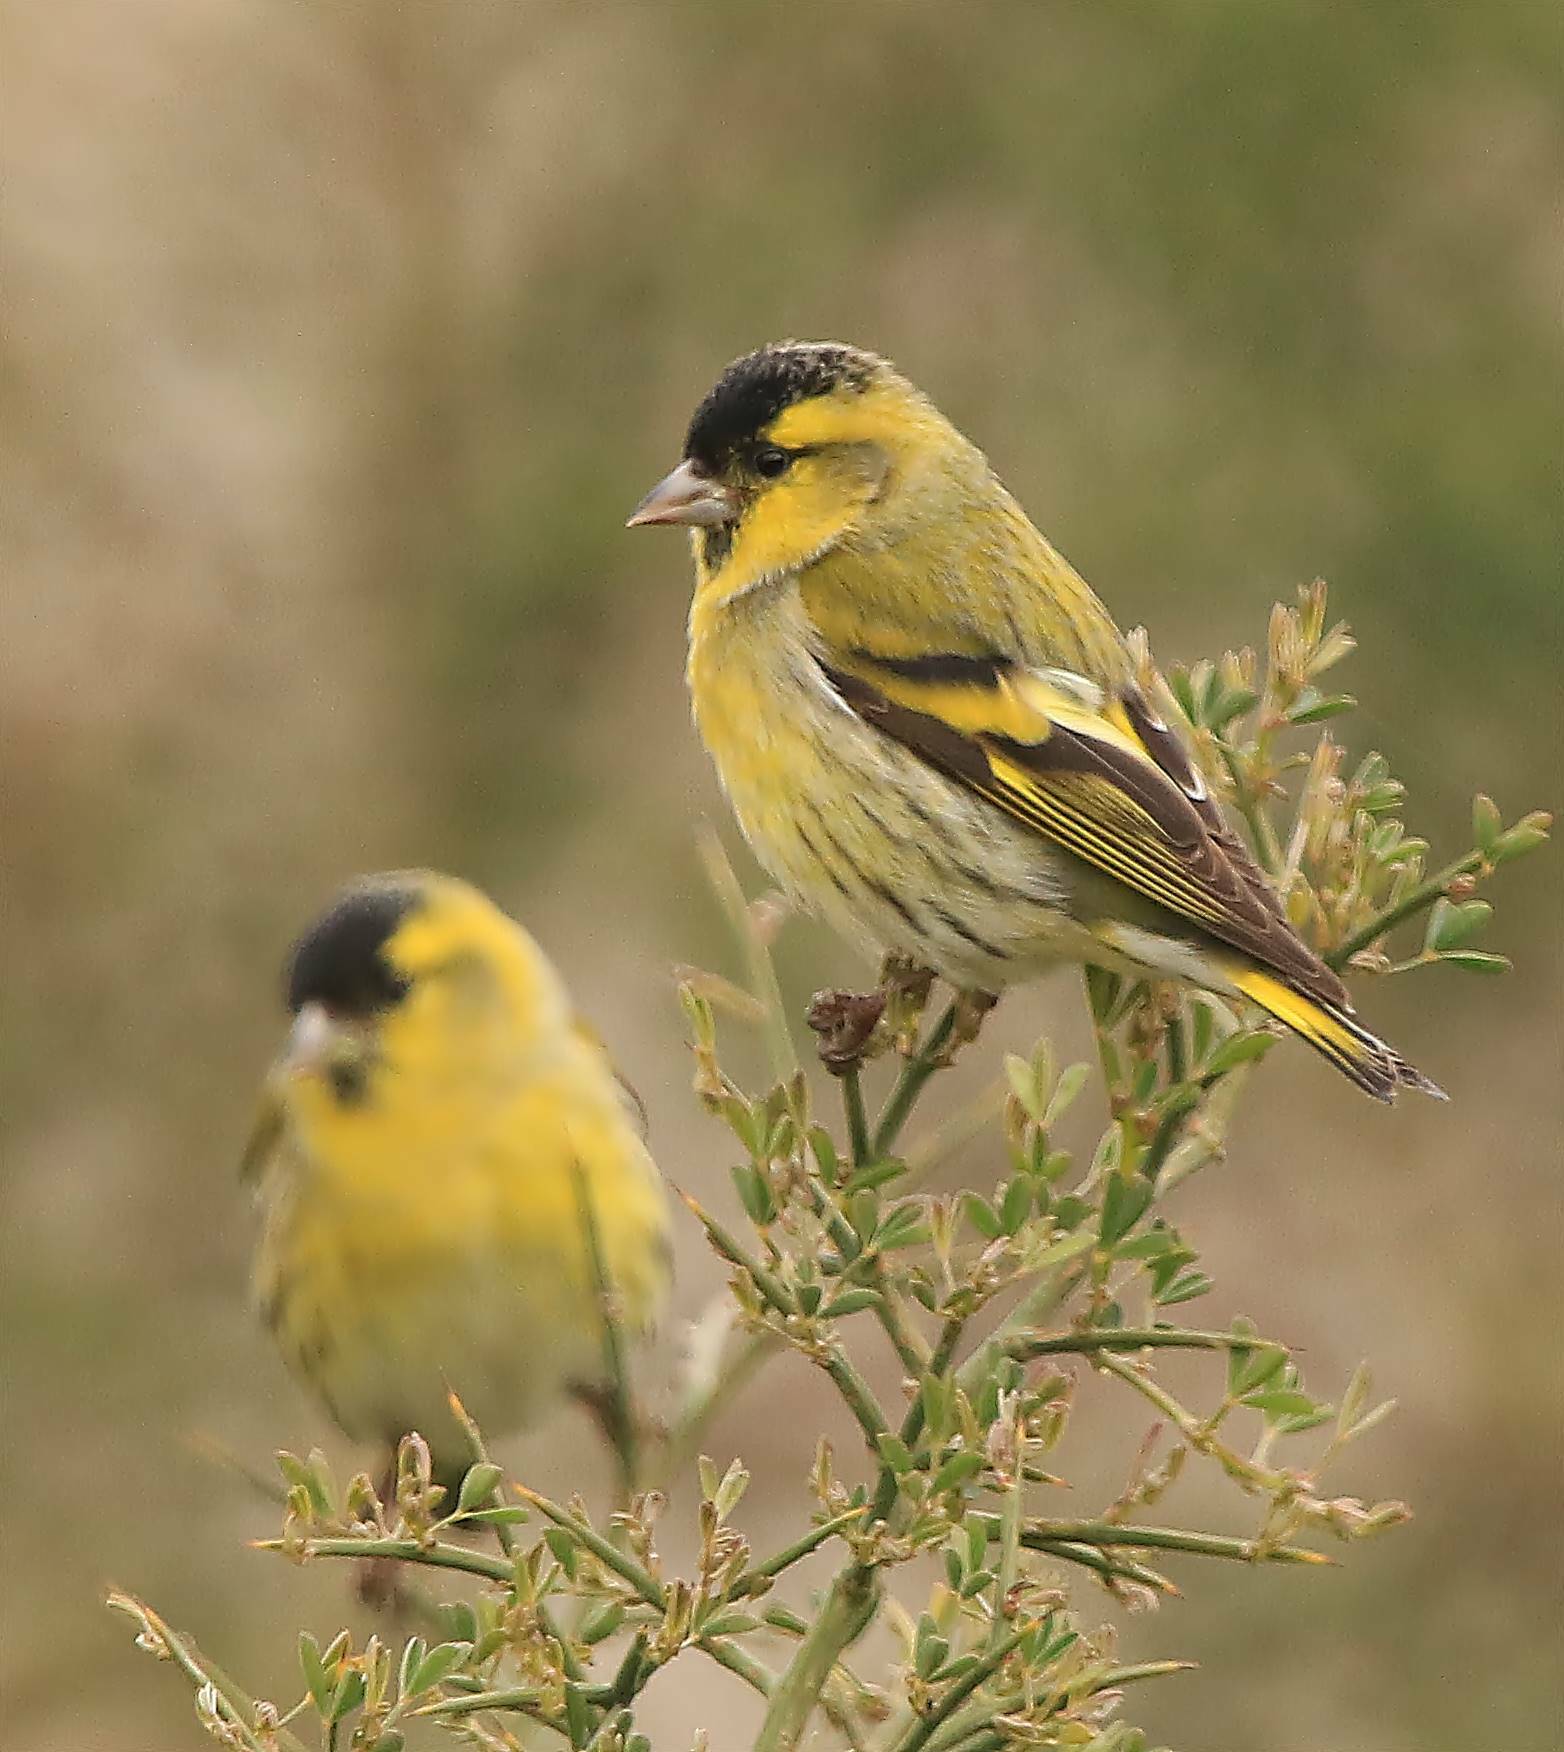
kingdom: Animalia
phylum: Chordata
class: Aves
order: Passeriformes
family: Fringillidae
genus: Spinus
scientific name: Spinus spinus
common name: Eurasian siskin
